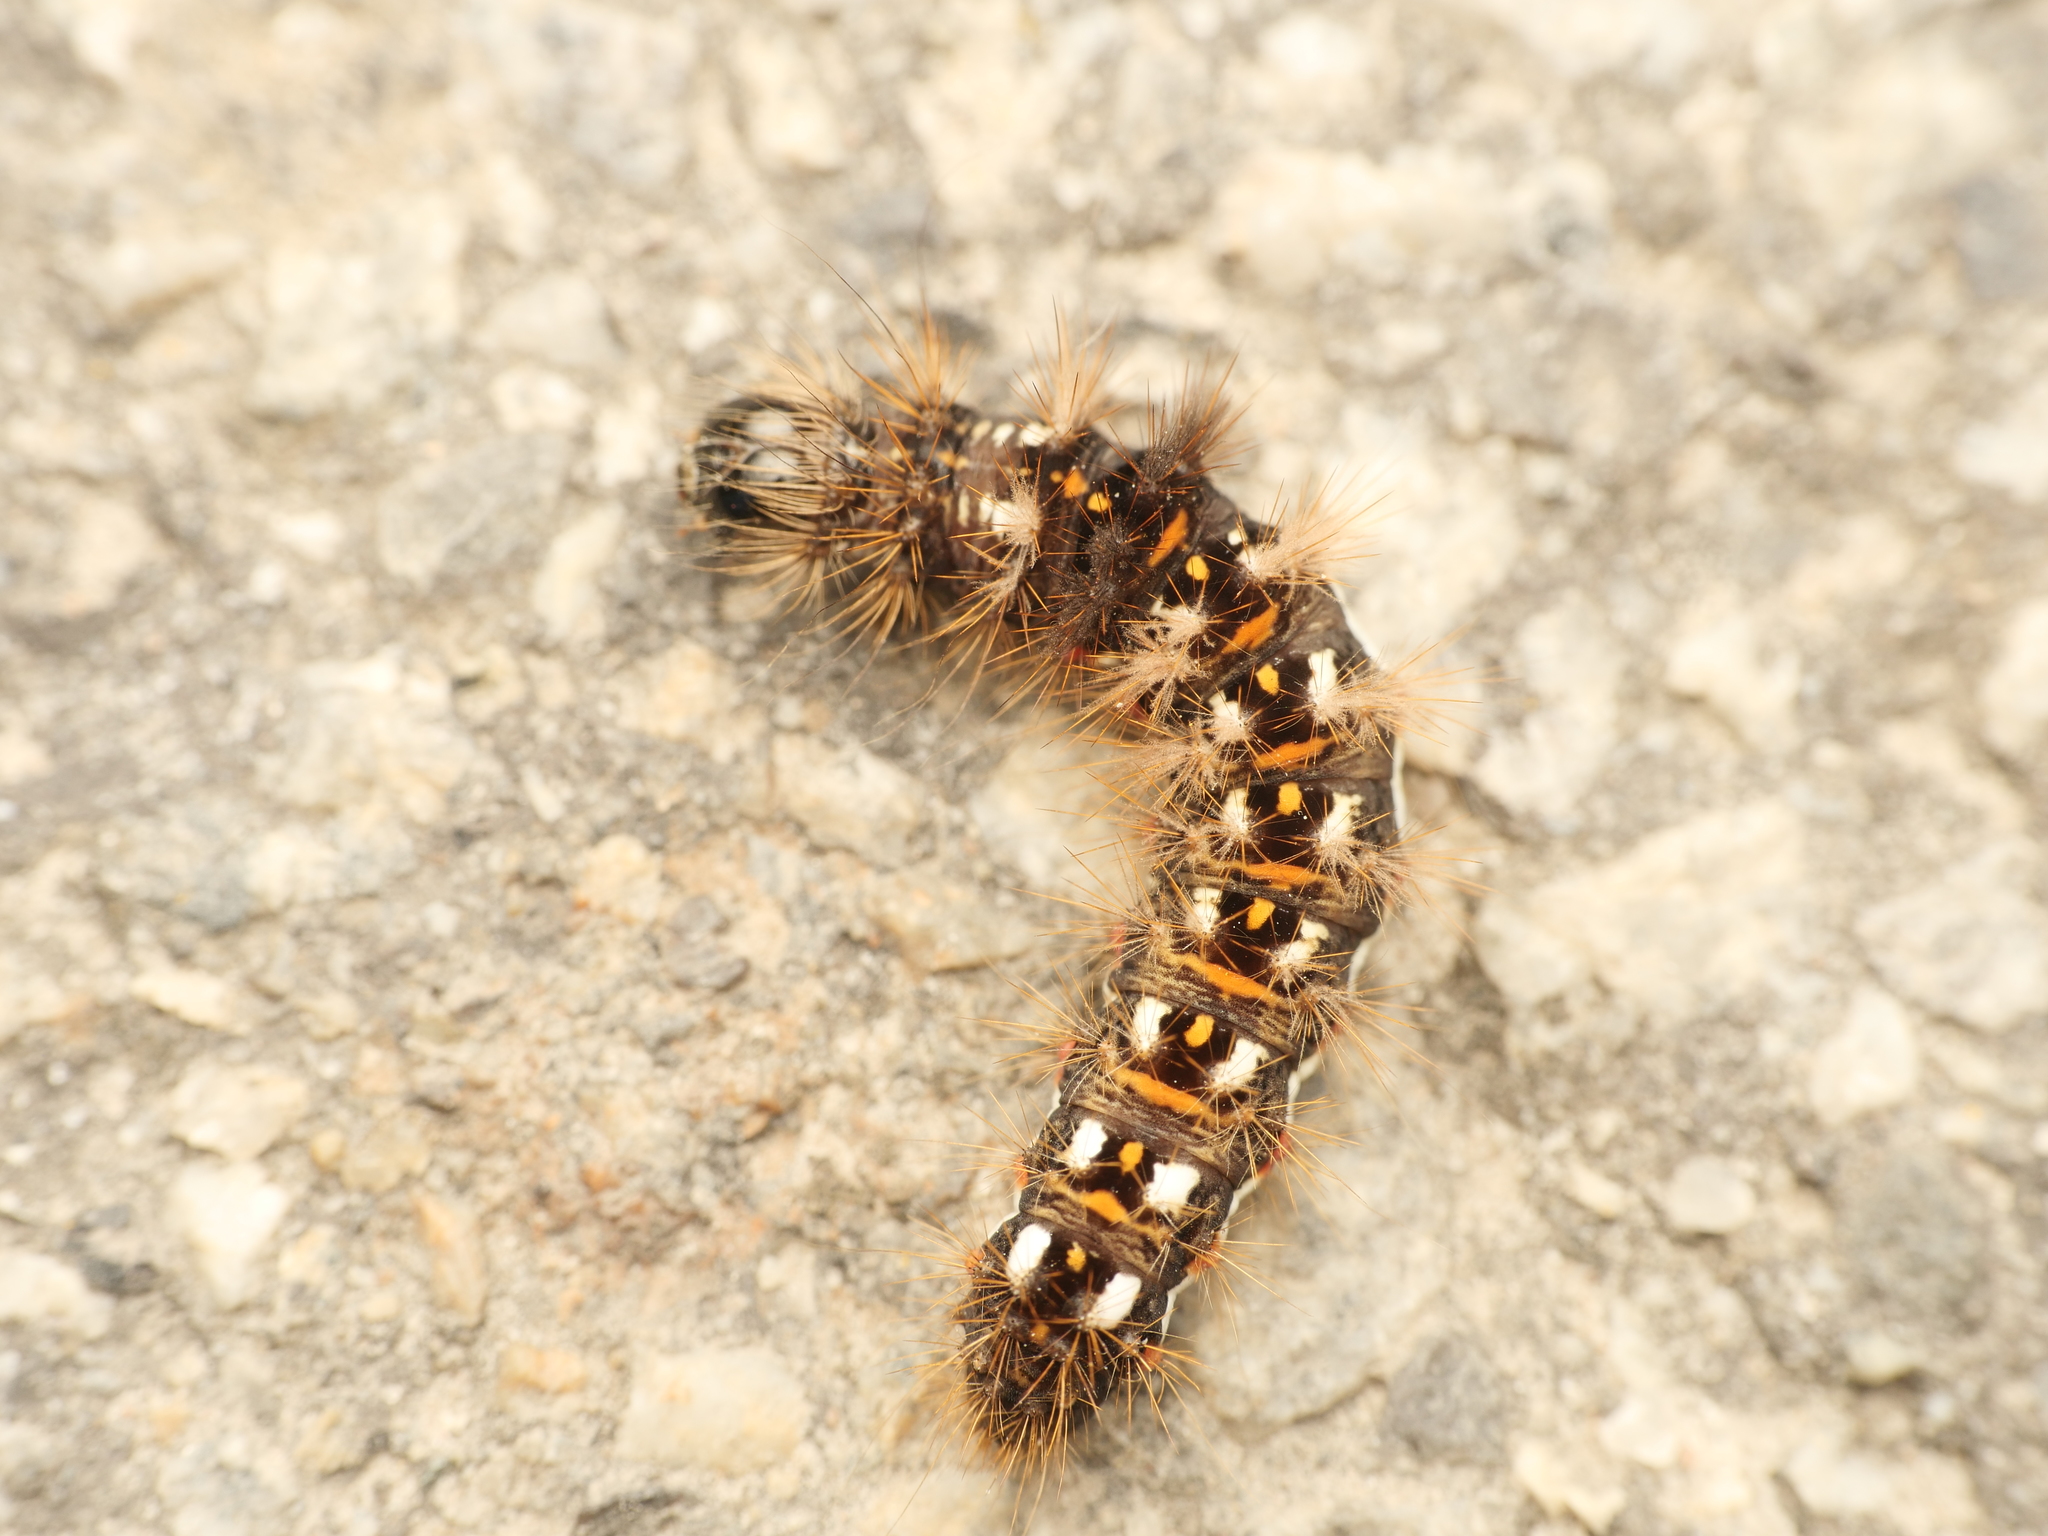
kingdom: Animalia
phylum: Arthropoda
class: Insecta
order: Lepidoptera
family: Noctuidae
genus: Acronicta
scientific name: Acronicta rumicis
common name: Knot grass
